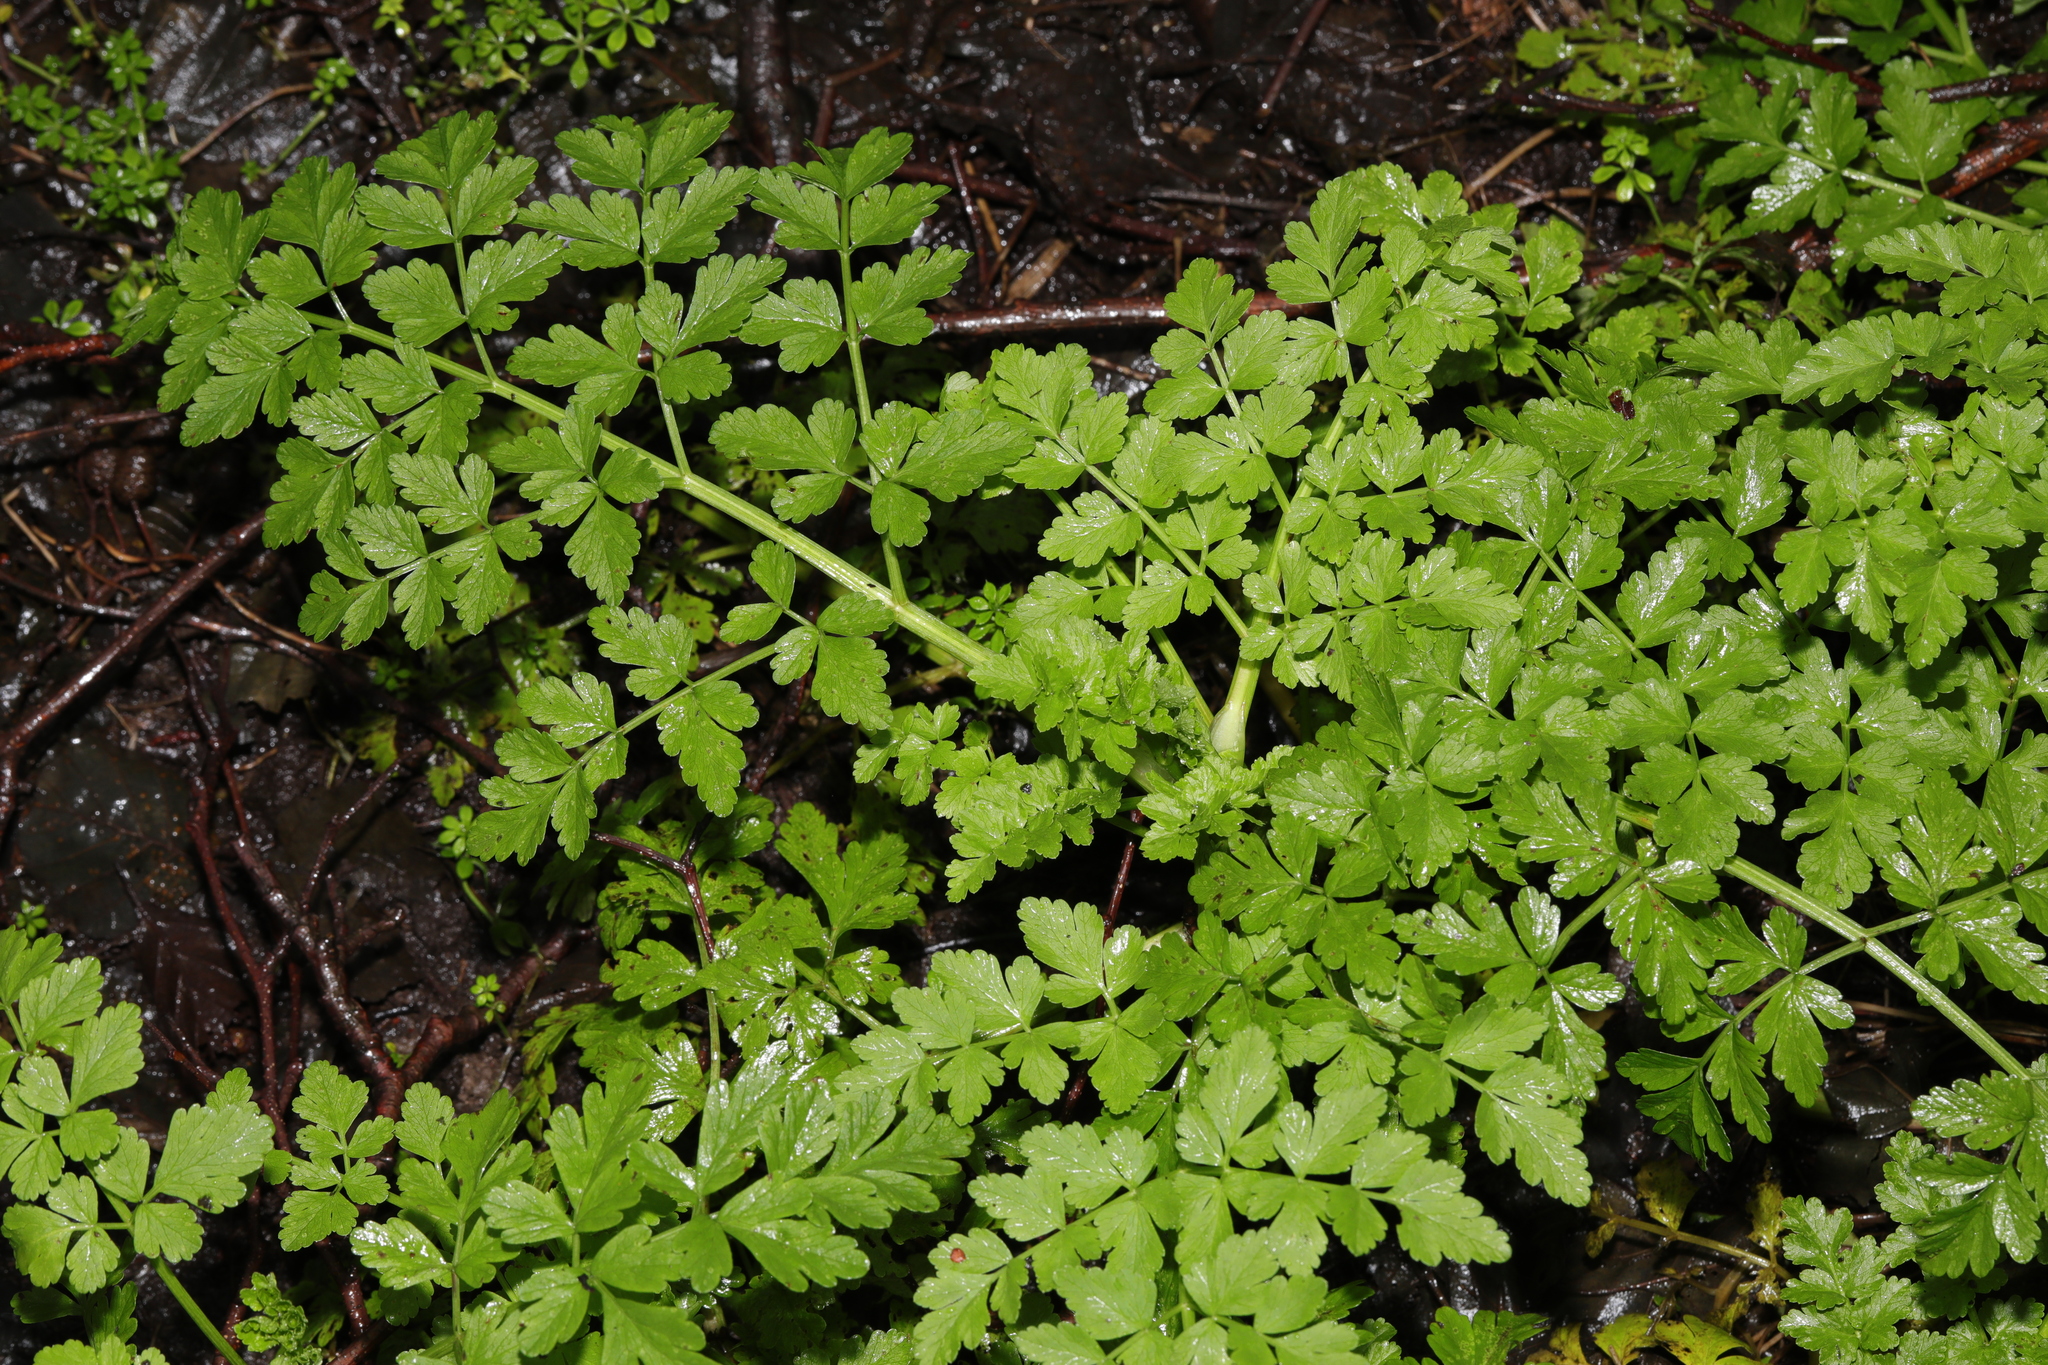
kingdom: Plantae
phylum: Tracheophyta
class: Magnoliopsida
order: Apiales
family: Apiaceae
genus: Oenanthe
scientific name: Oenanthe crocata
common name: Hemlock water-dropwort
